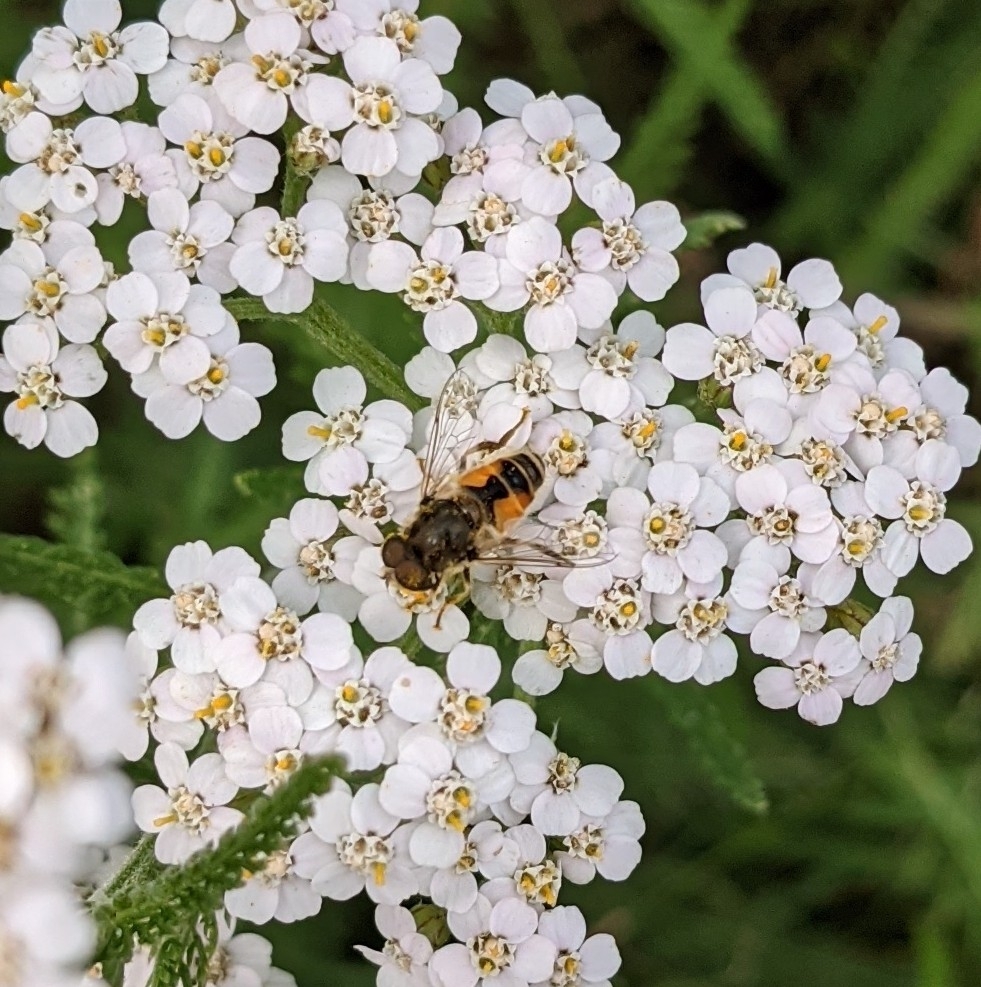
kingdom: Animalia
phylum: Arthropoda
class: Insecta
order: Diptera
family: Syrphidae
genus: Eristalis
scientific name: Eristalis arbustorum
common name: Hover fly
